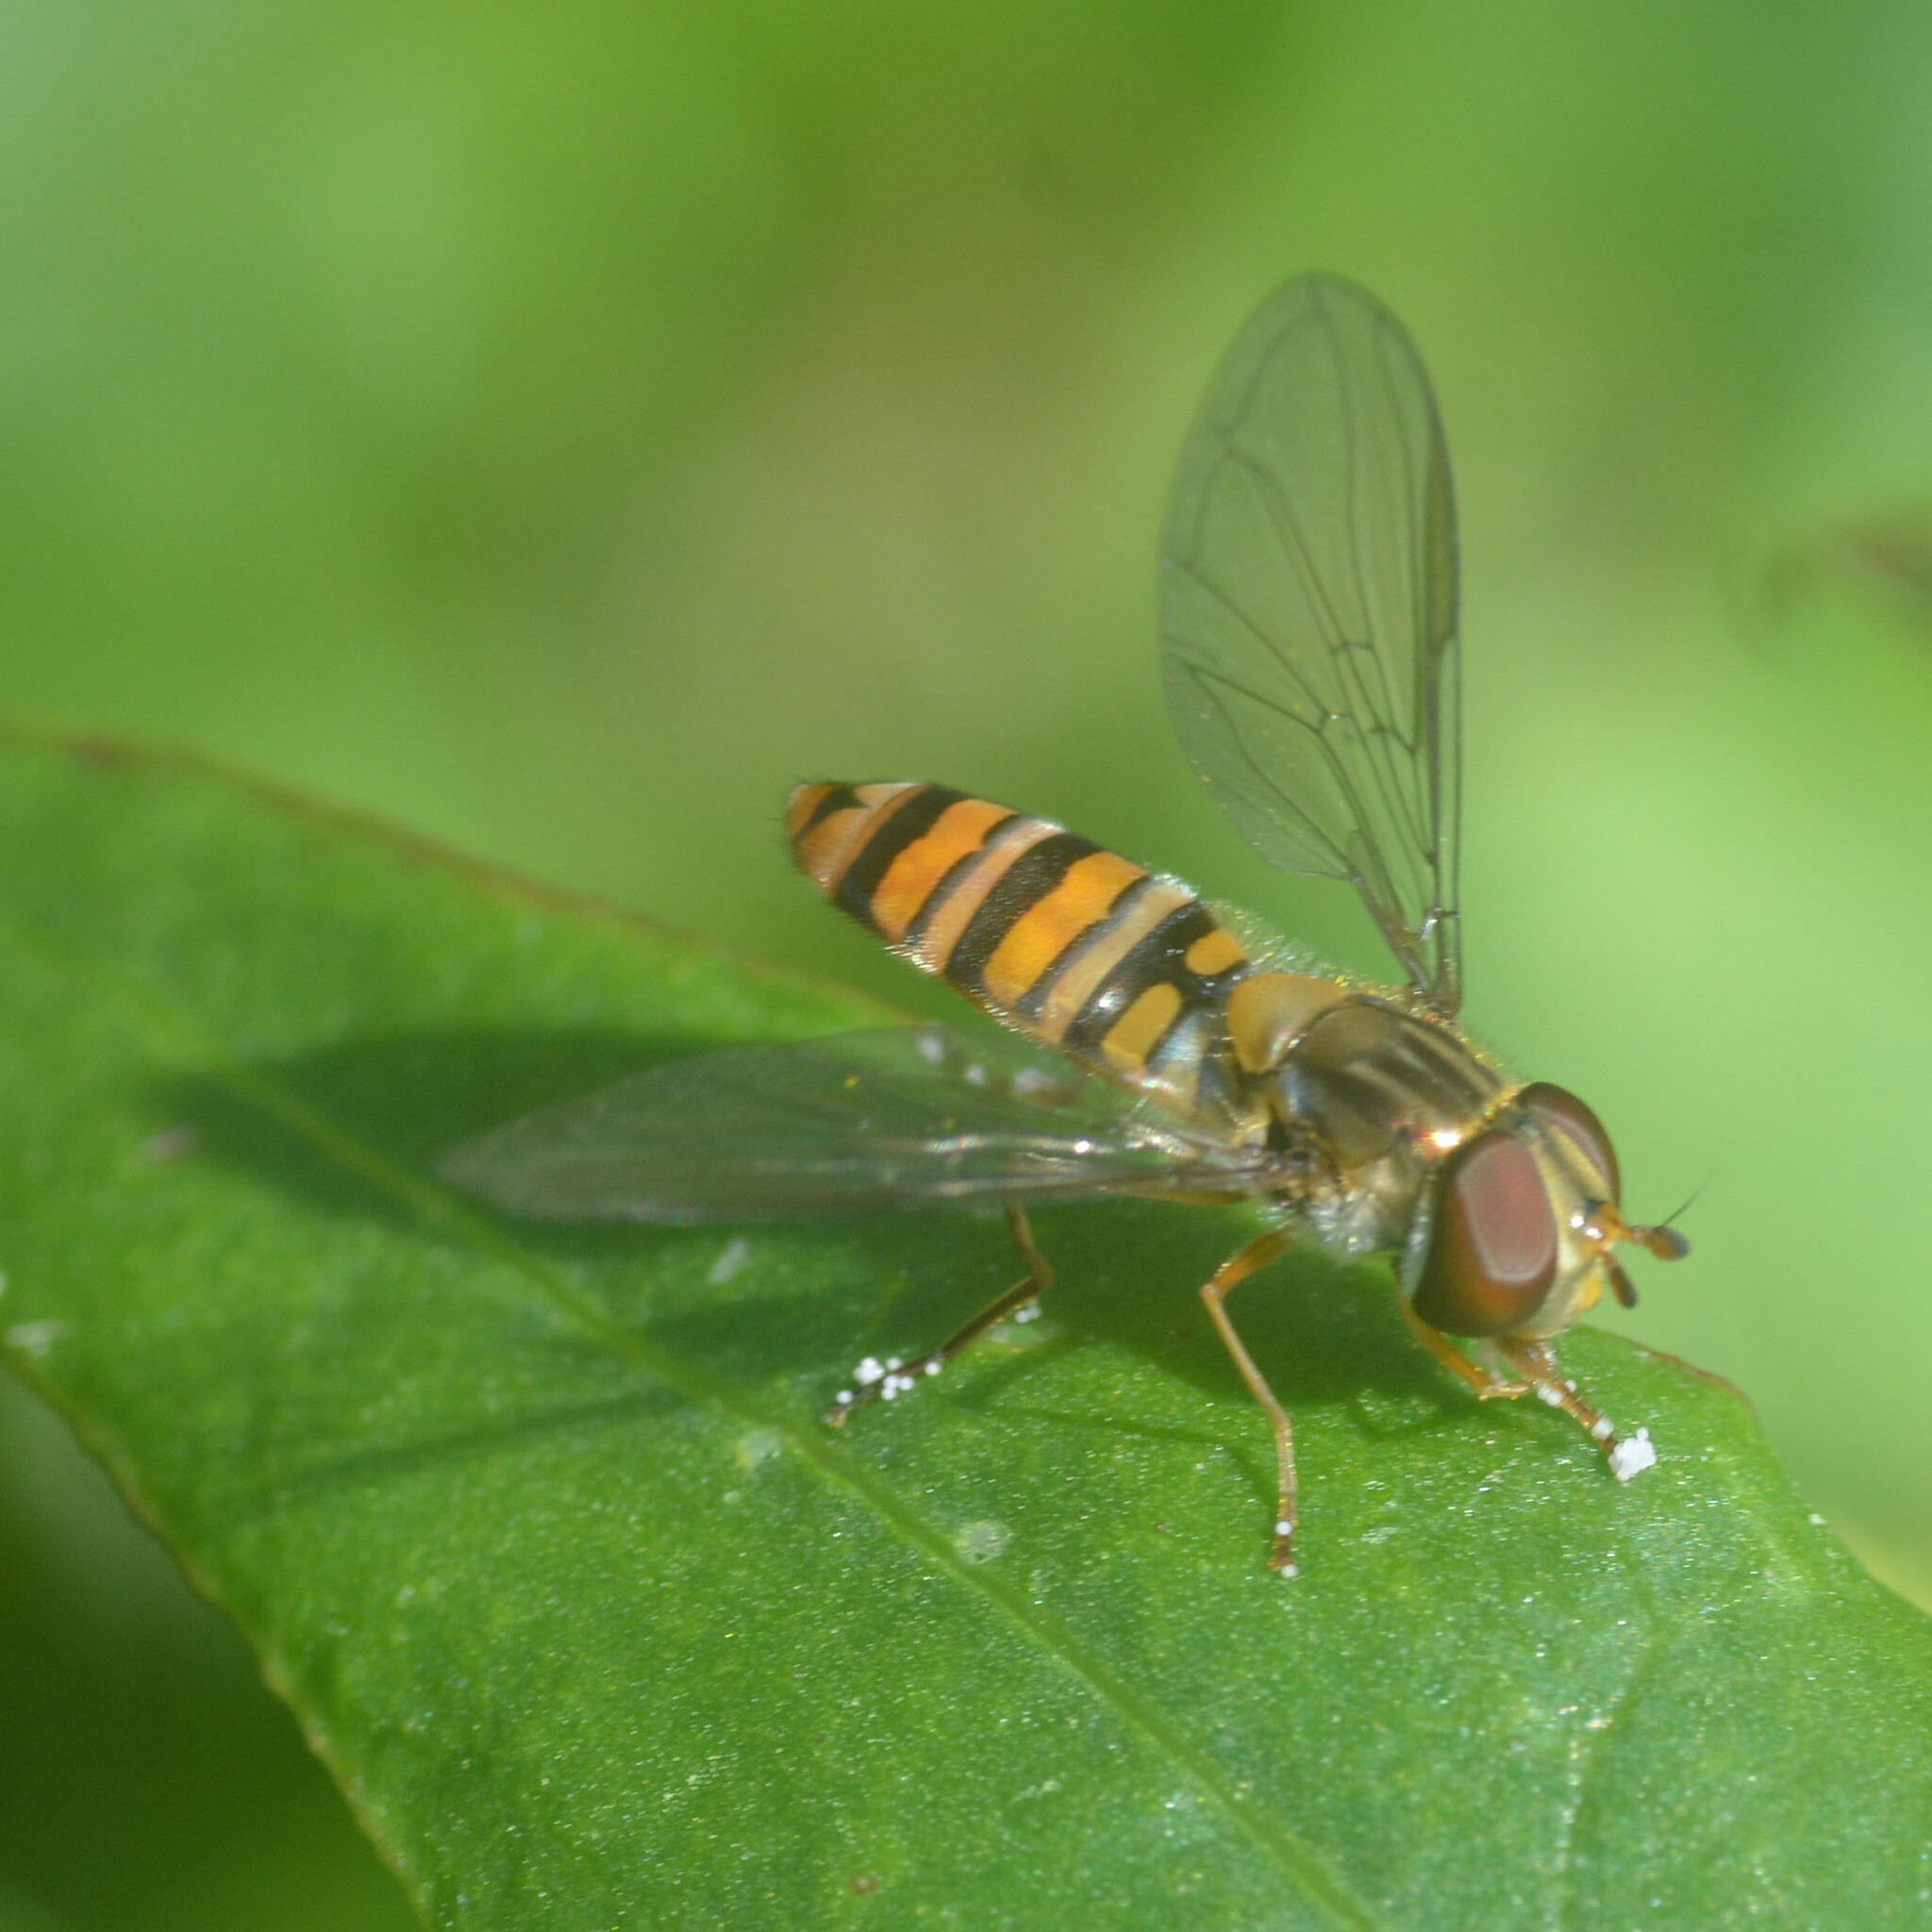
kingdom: Animalia
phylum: Arthropoda
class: Insecta
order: Diptera
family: Syrphidae
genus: Episyrphus
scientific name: Episyrphus balteatus
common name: Marmalade hoverfly
